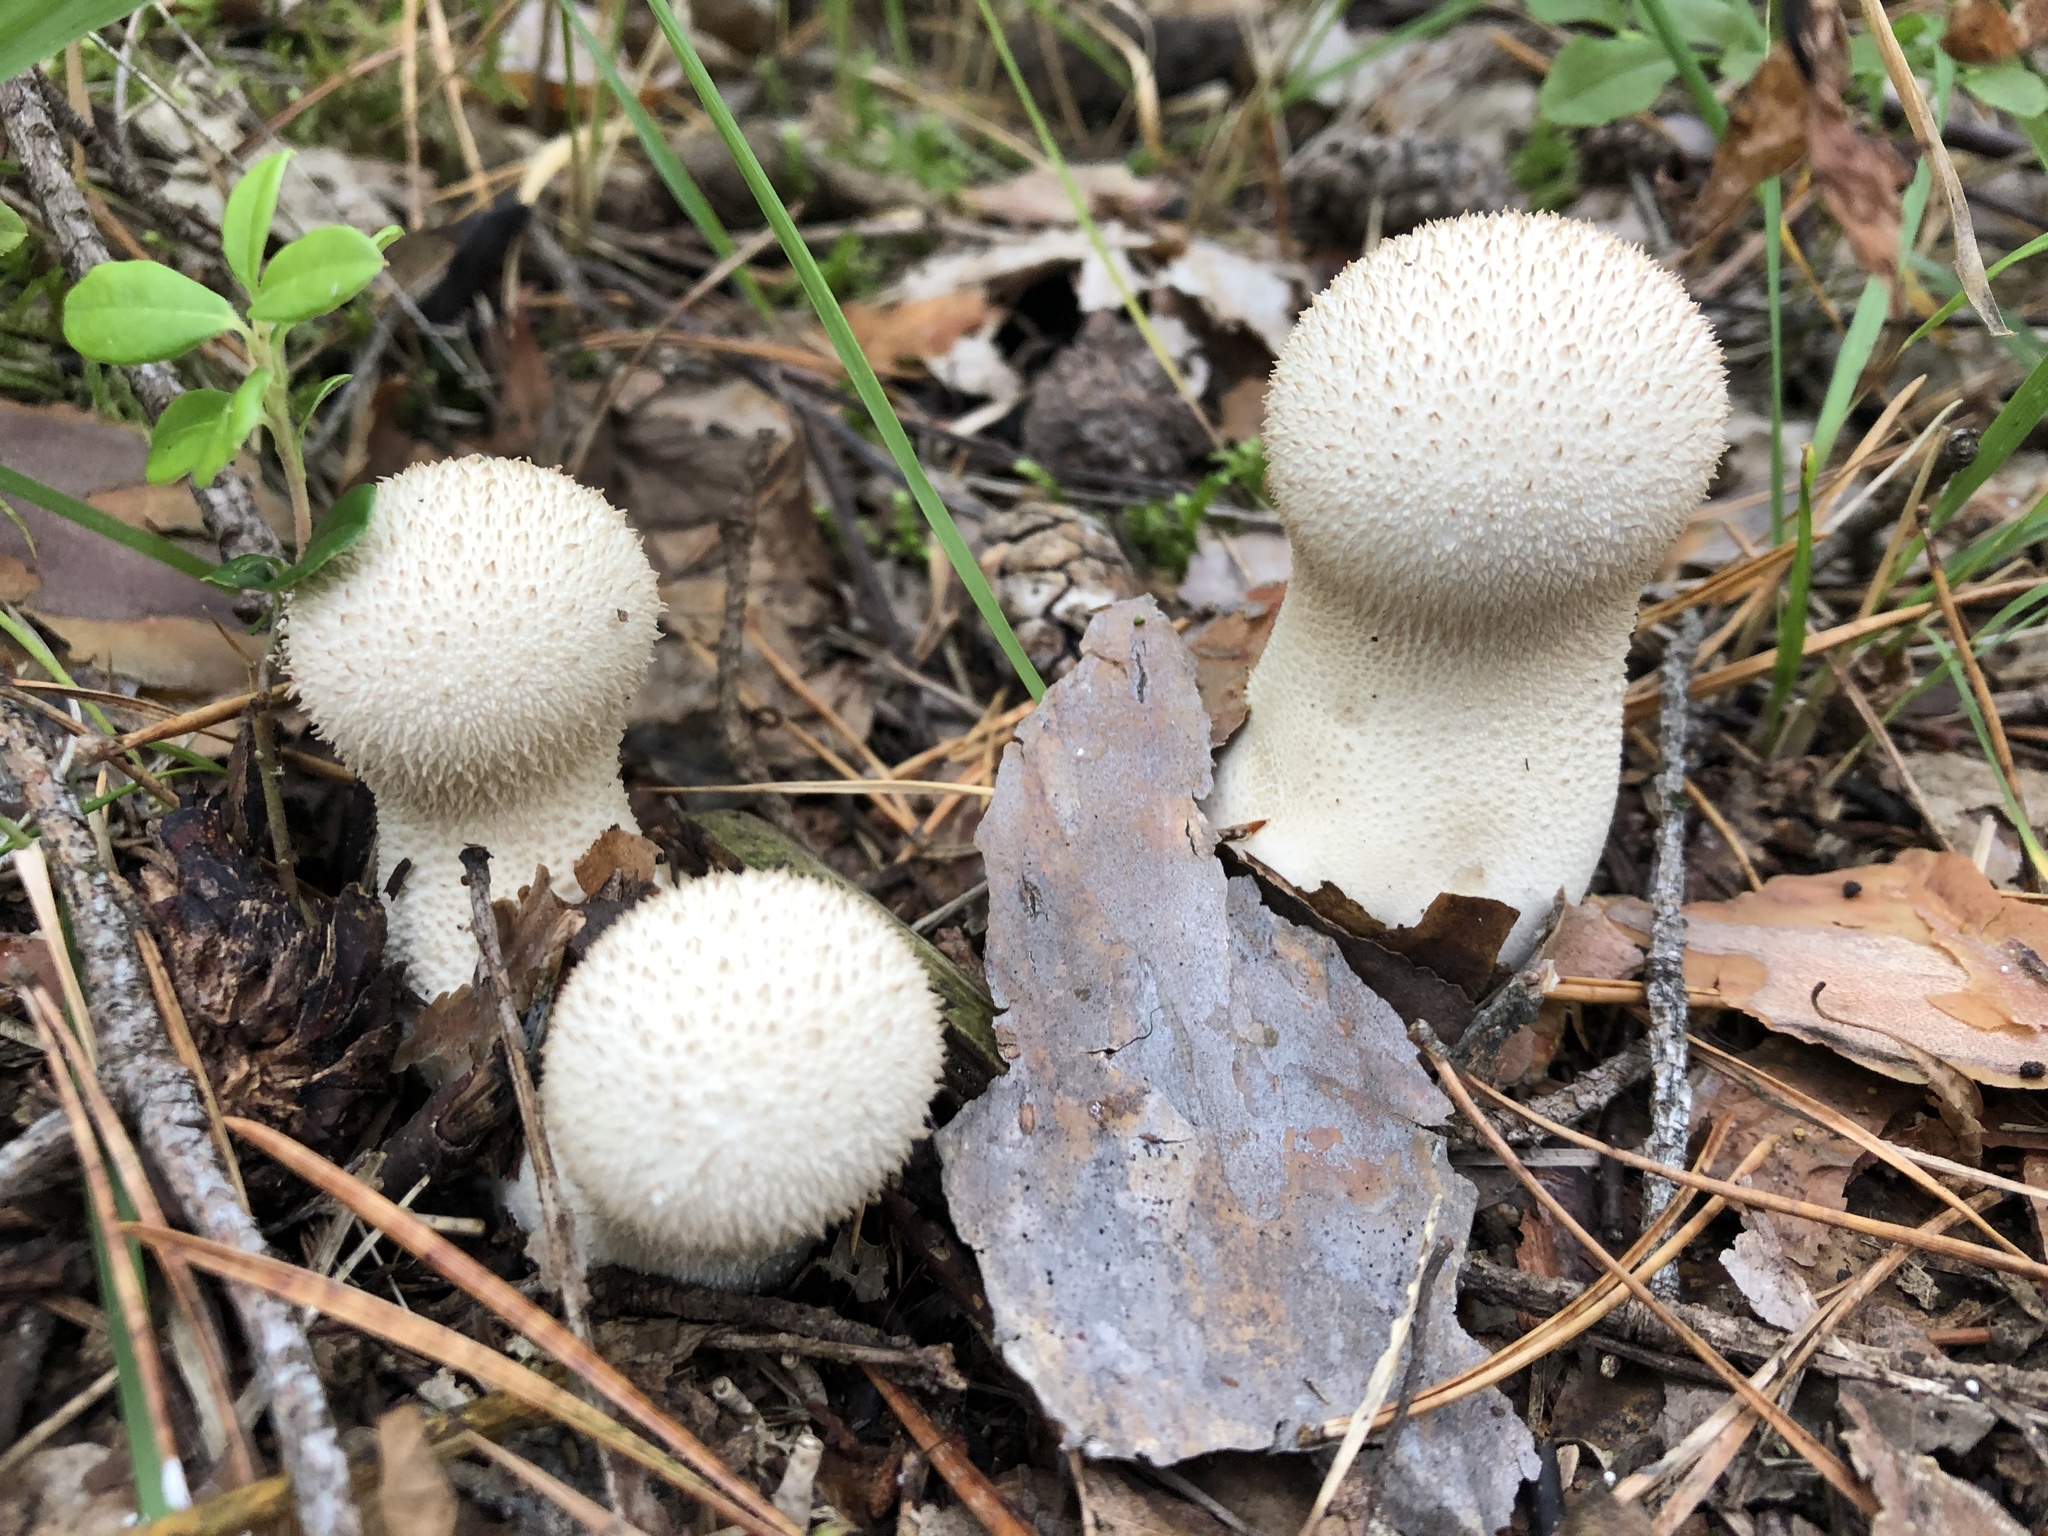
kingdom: Fungi
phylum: Basidiomycota
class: Agaricomycetes
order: Agaricales
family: Lycoperdaceae
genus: Lycoperdon
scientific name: Lycoperdon perlatum
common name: Common puffball
